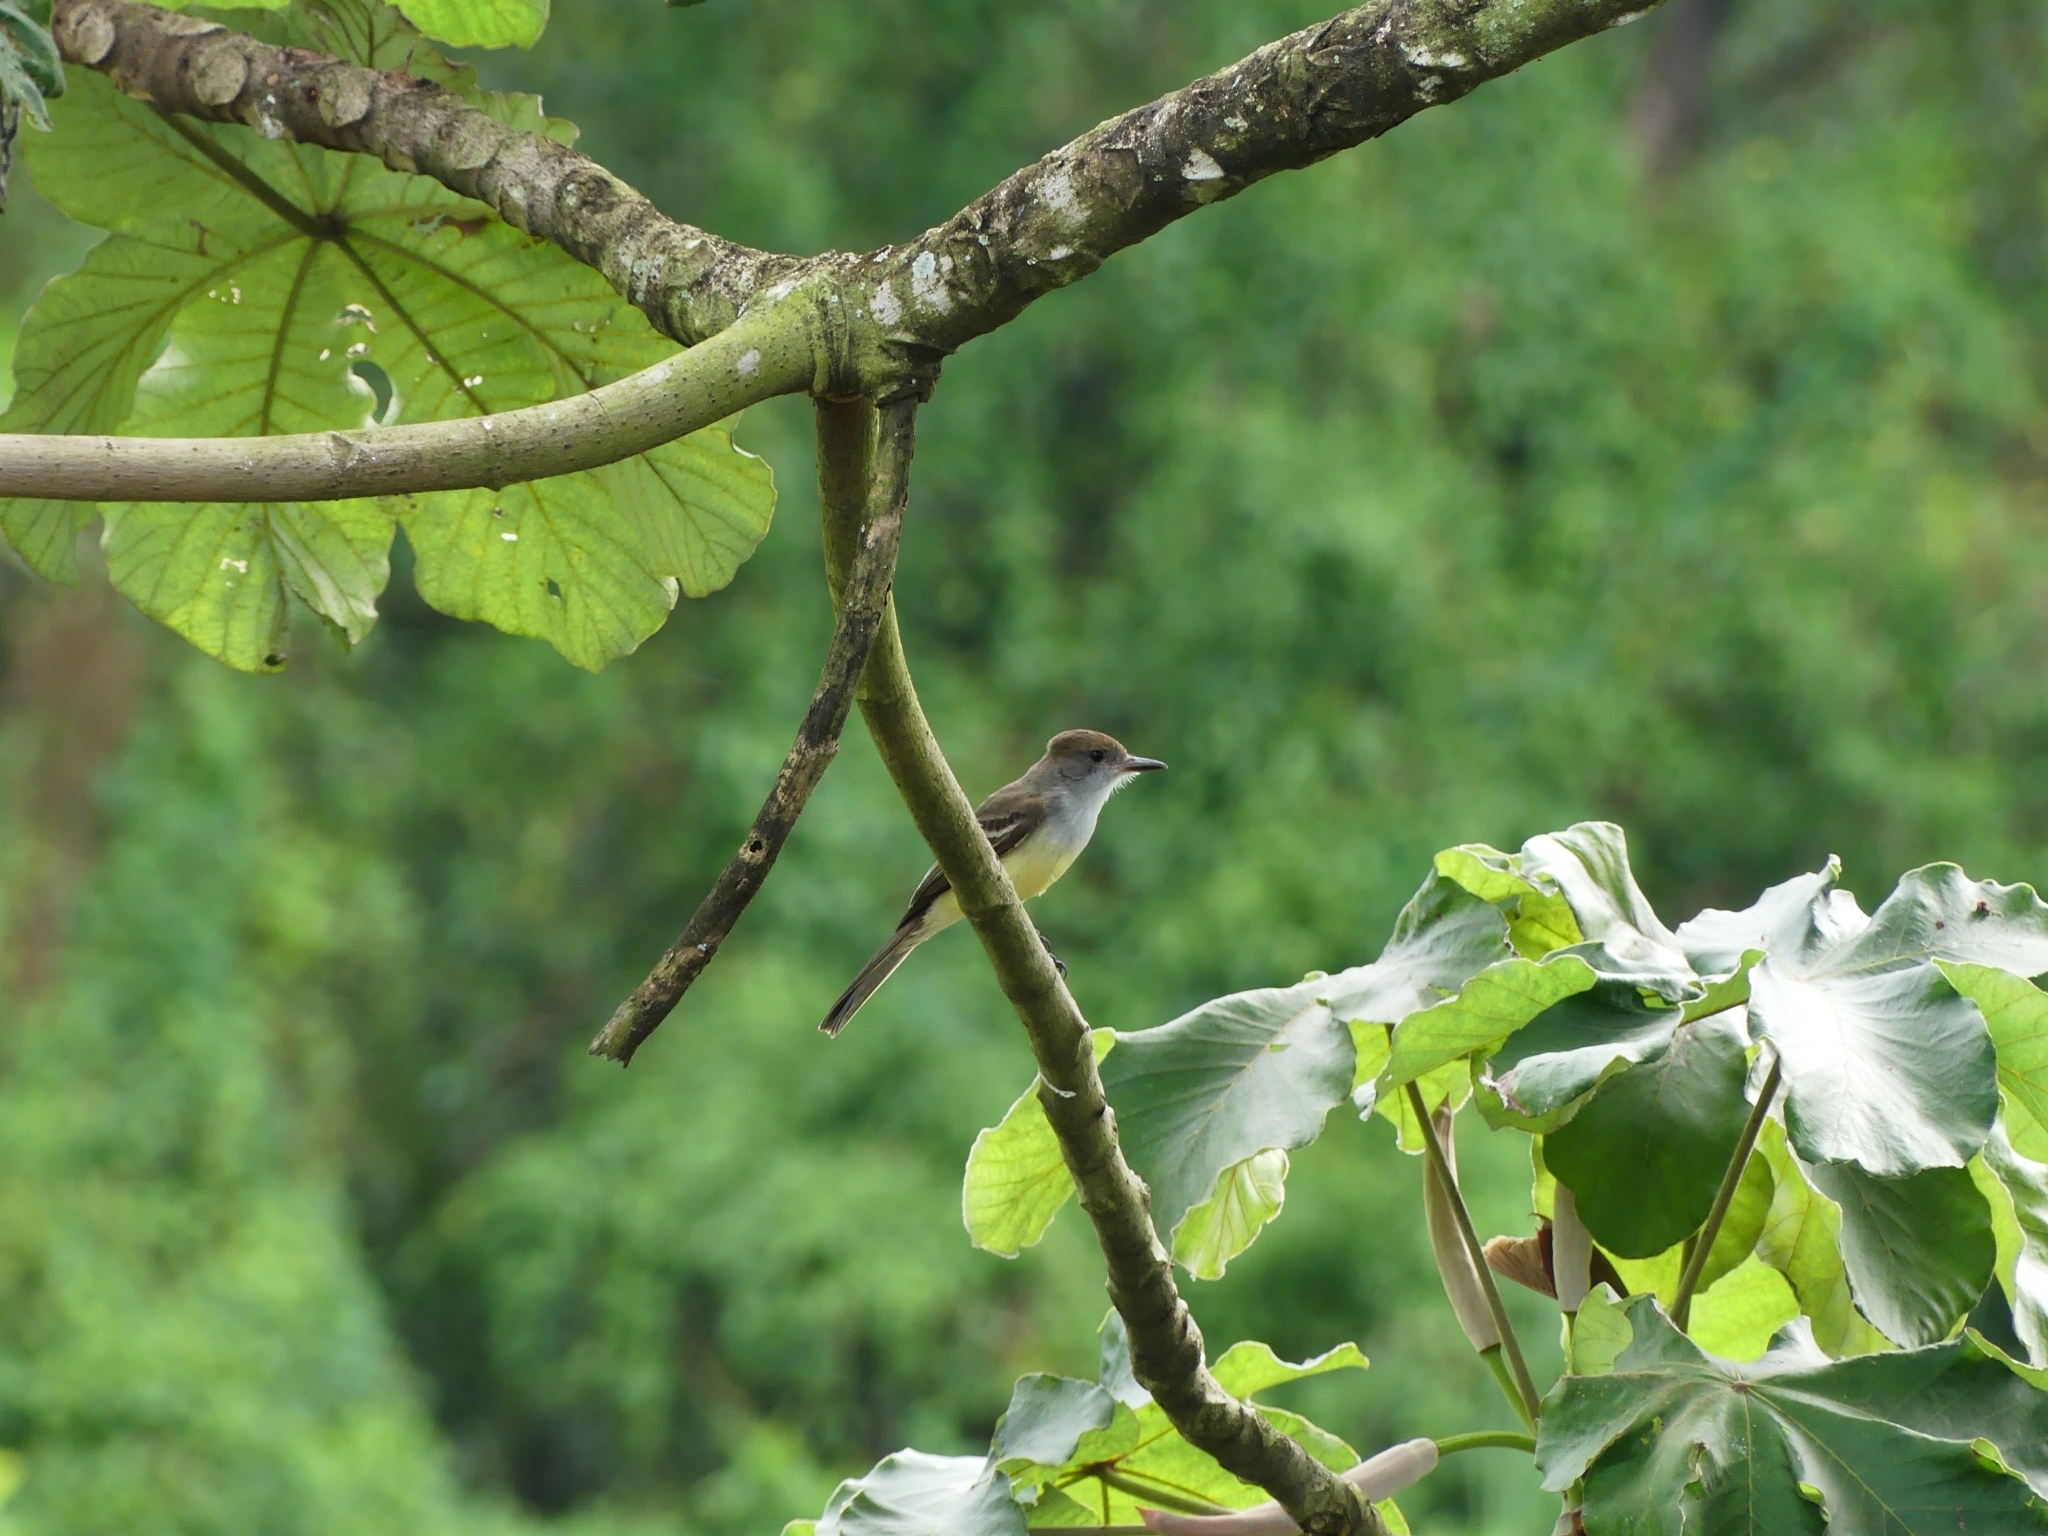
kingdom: Animalia
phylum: Chordata
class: Aves
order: Passeriformes
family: Tyrannidae
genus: Myiarchus
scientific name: Myiarchus tyrannulus
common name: Brown-crested flycatcher
